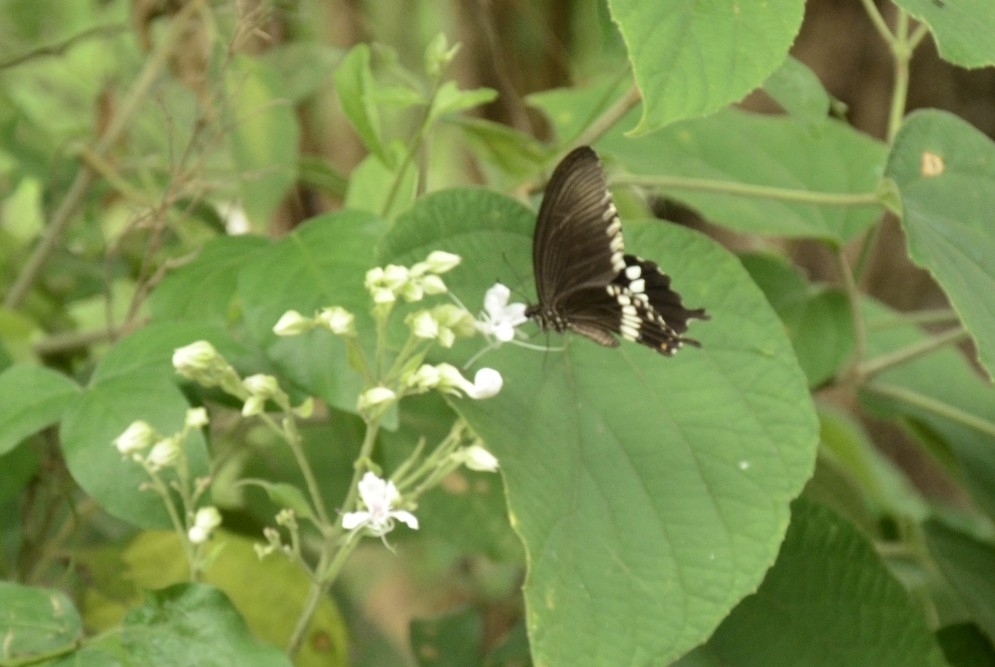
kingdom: Animalia
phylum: Arthropoda
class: Insecta
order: Lepidoptera
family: Papilionidae
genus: Papilio
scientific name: Papilio polytes
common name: Common mormon
